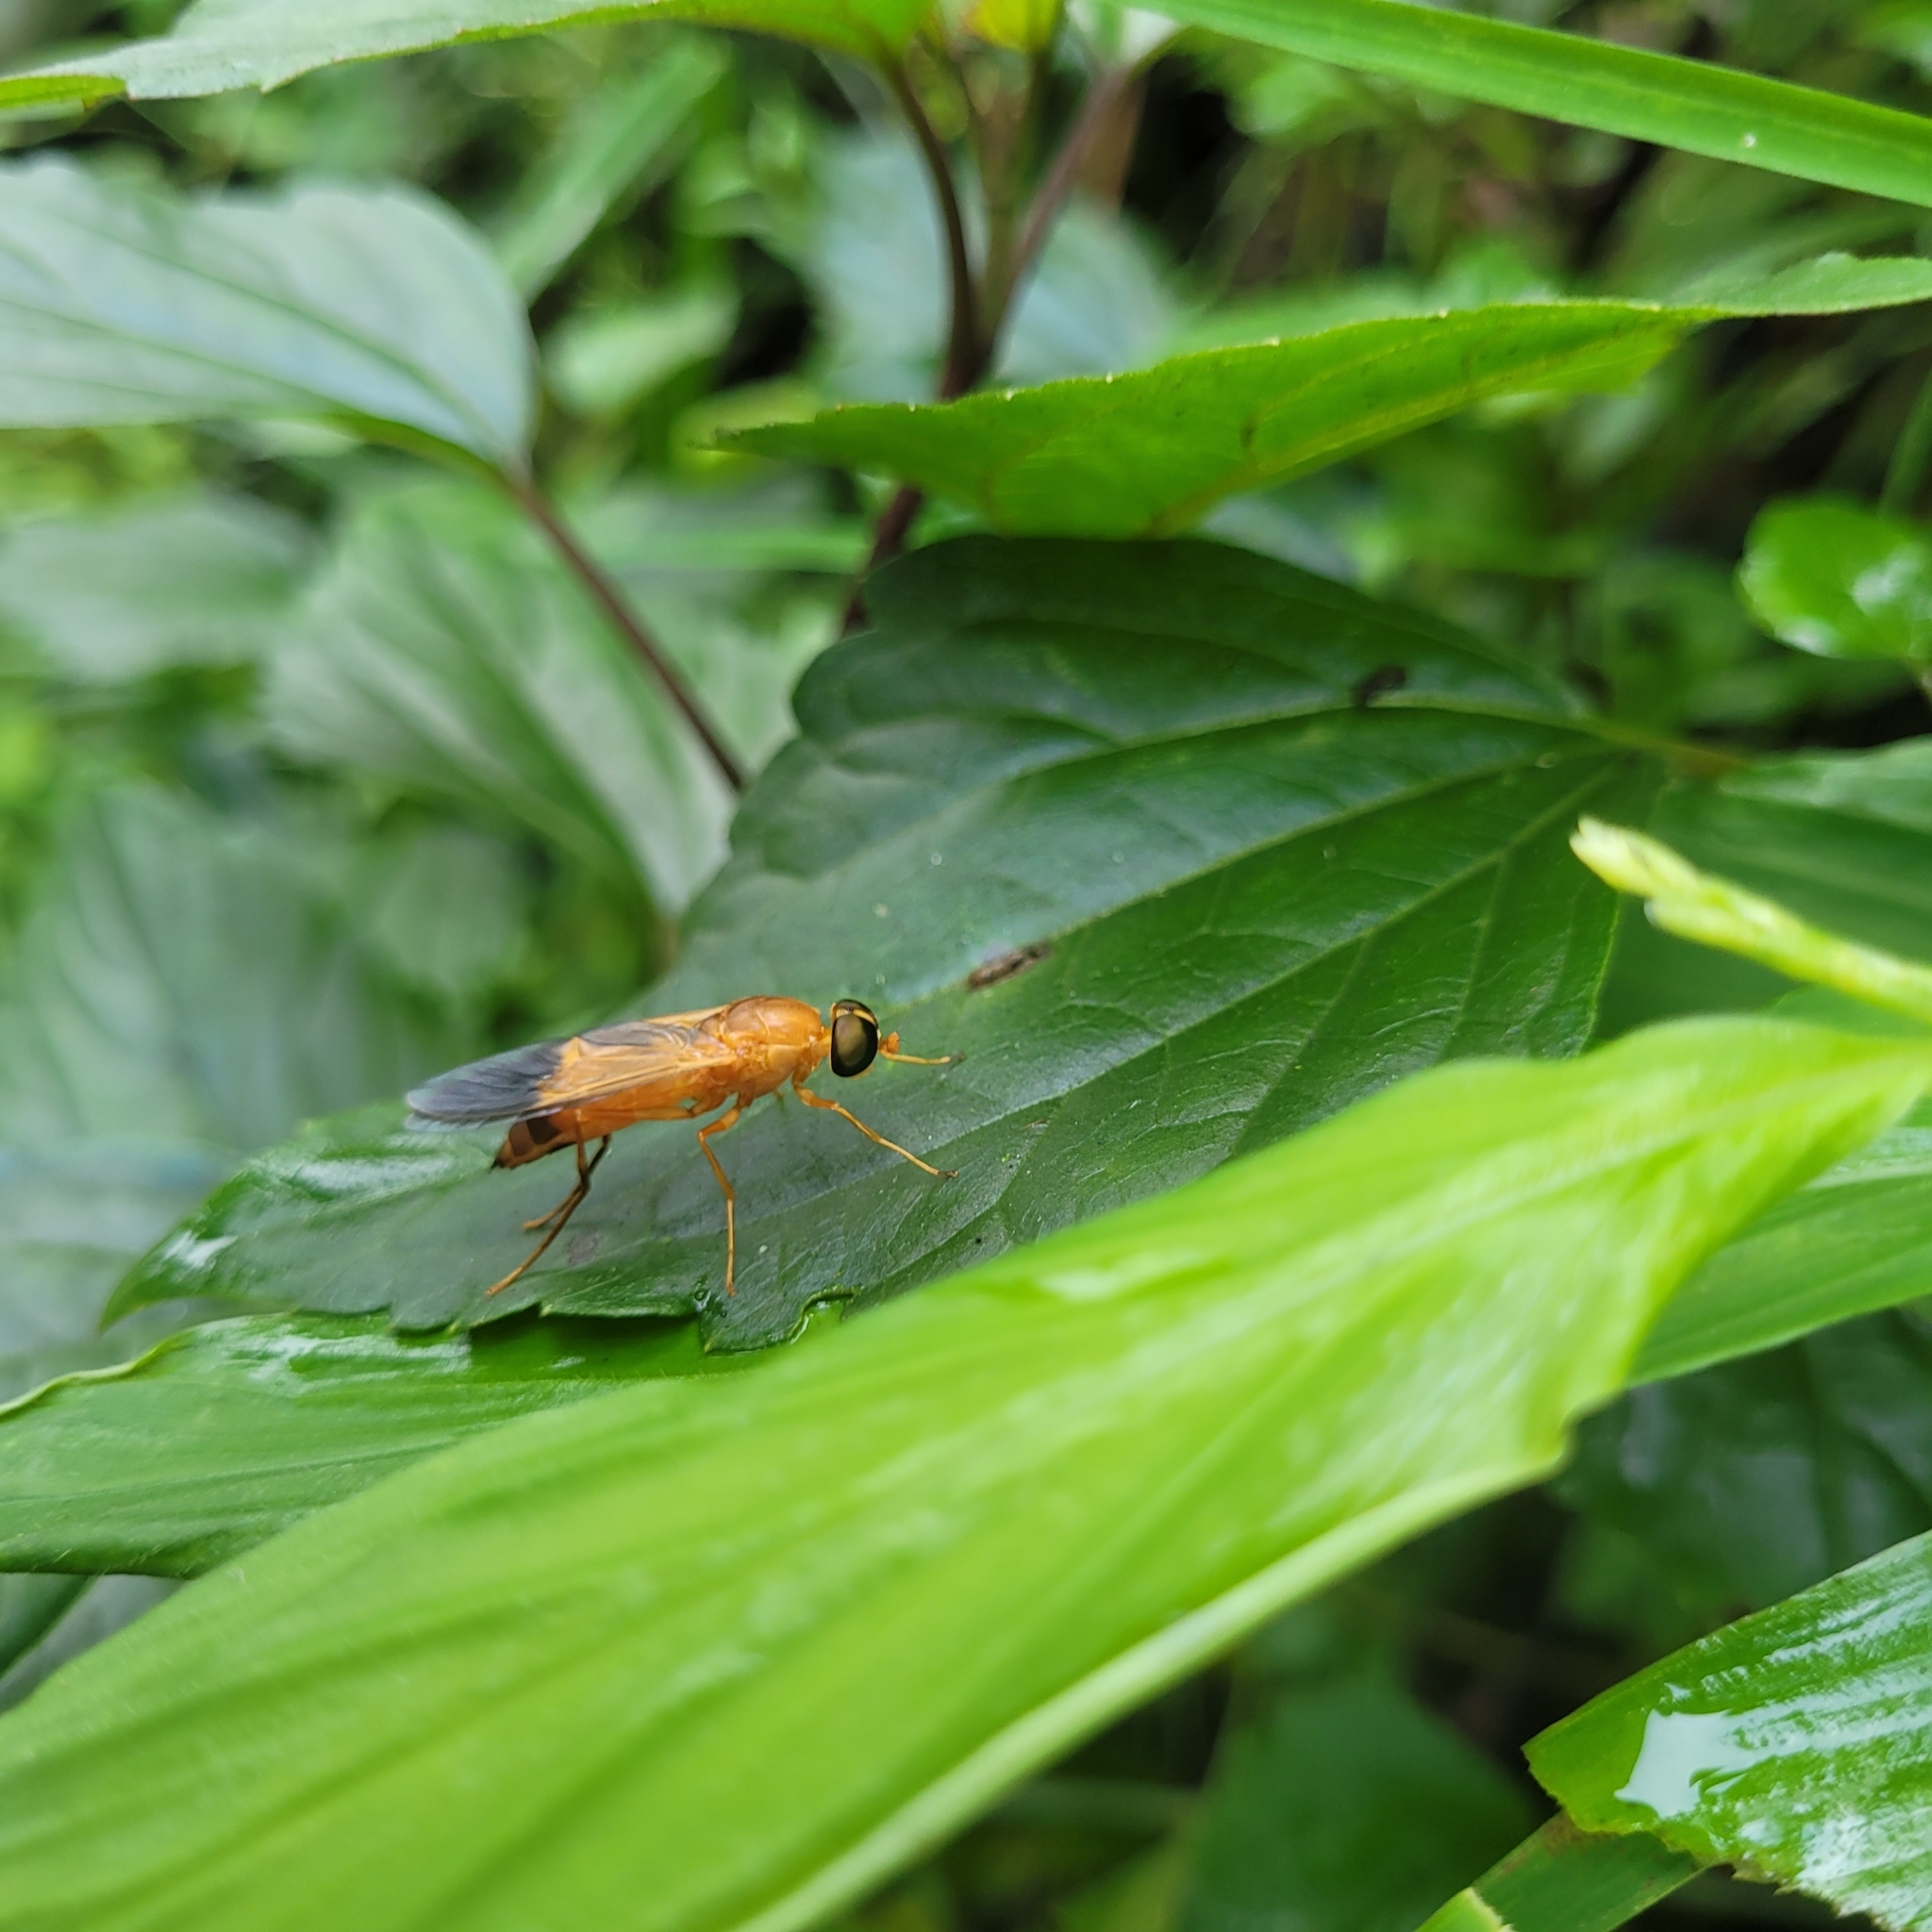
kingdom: Animalia
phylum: Arthropoda
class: Insecta
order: Diptera
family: Stratiomyidae
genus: Ptecticus
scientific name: Ptecticus aurifer
